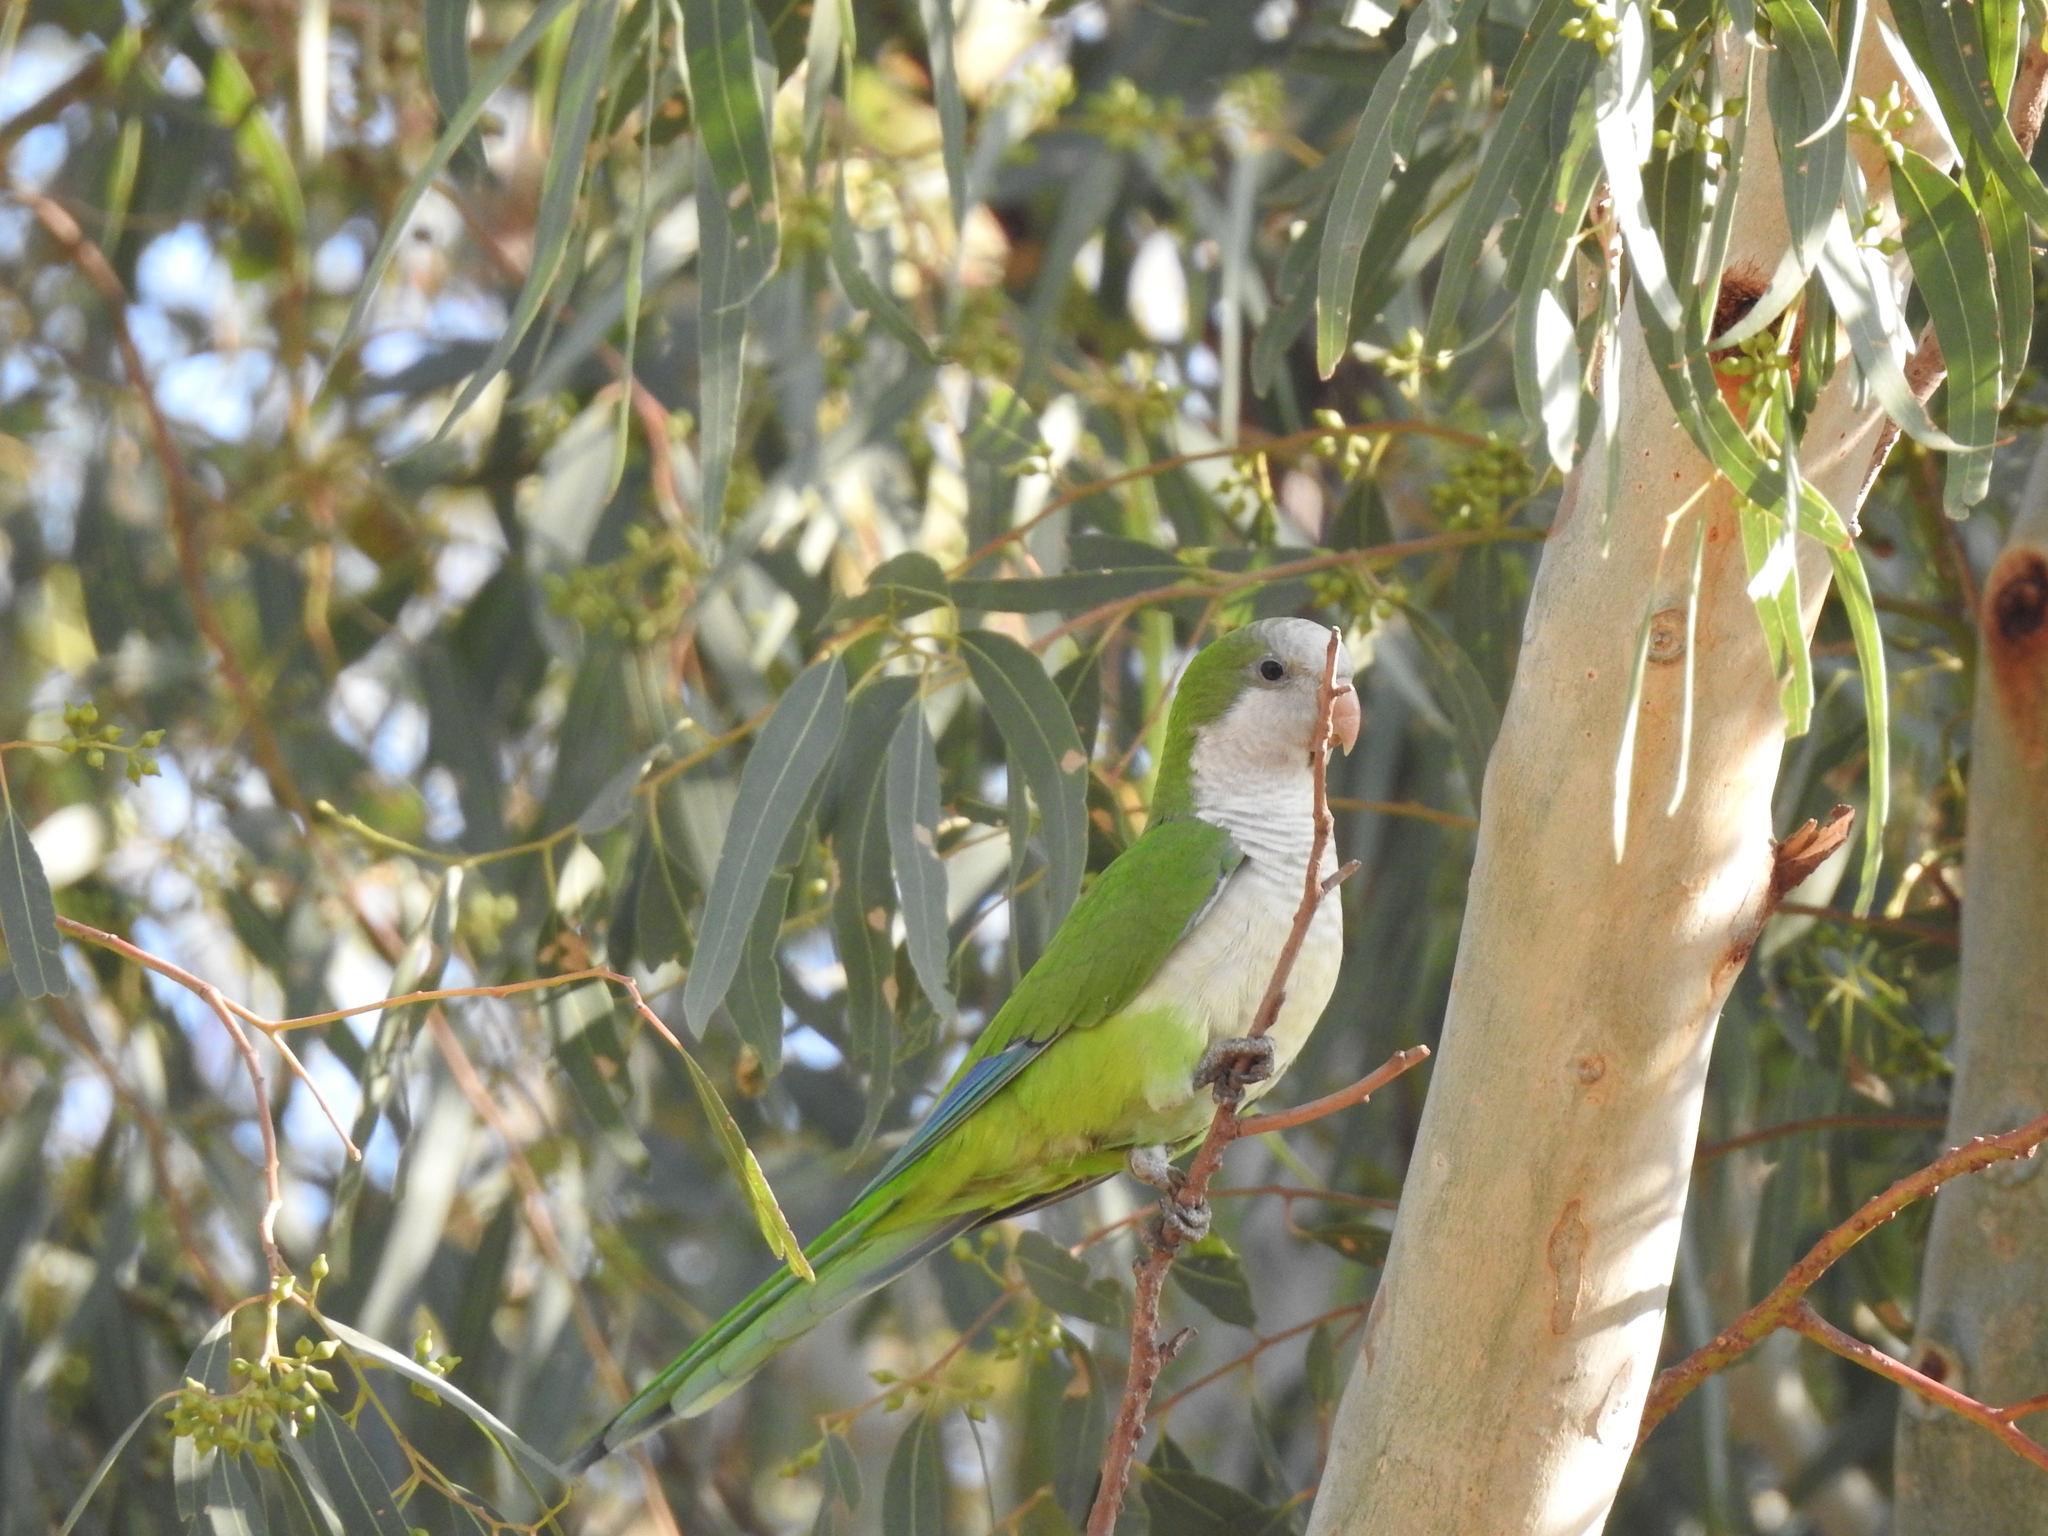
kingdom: Animalia
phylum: Chordata
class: Aves
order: Psittaciformes
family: Psittacidae
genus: Myiopsitta
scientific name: Myiopsitta monachus
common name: Monk parakeet
